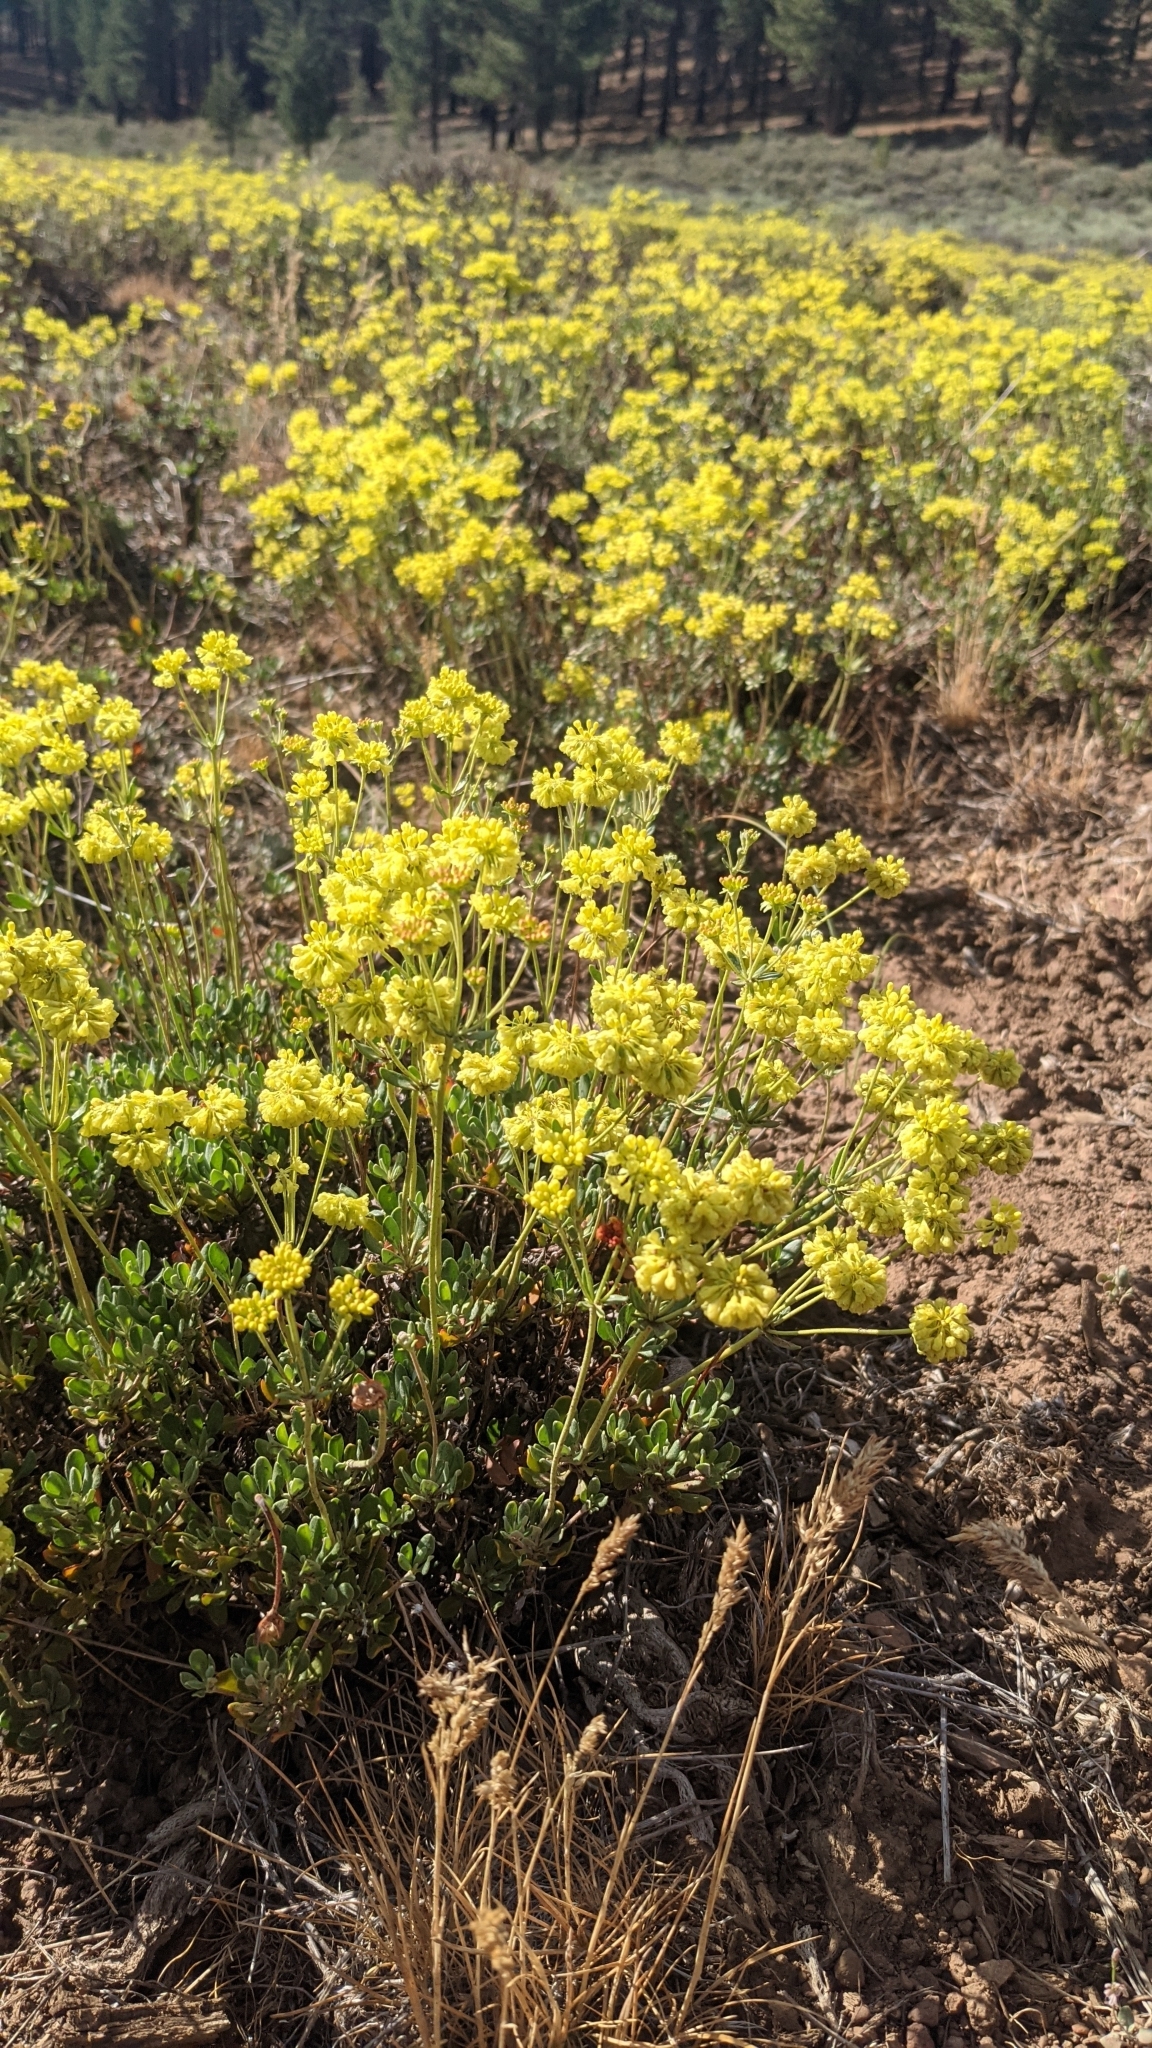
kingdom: Plantae
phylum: Tracheophyta
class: Magnoliopsida
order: Caryophyllales
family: Polygonaceae
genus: Eriogonum
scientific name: Eriogonum umbellatum
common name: Sulfur-buckwheat
